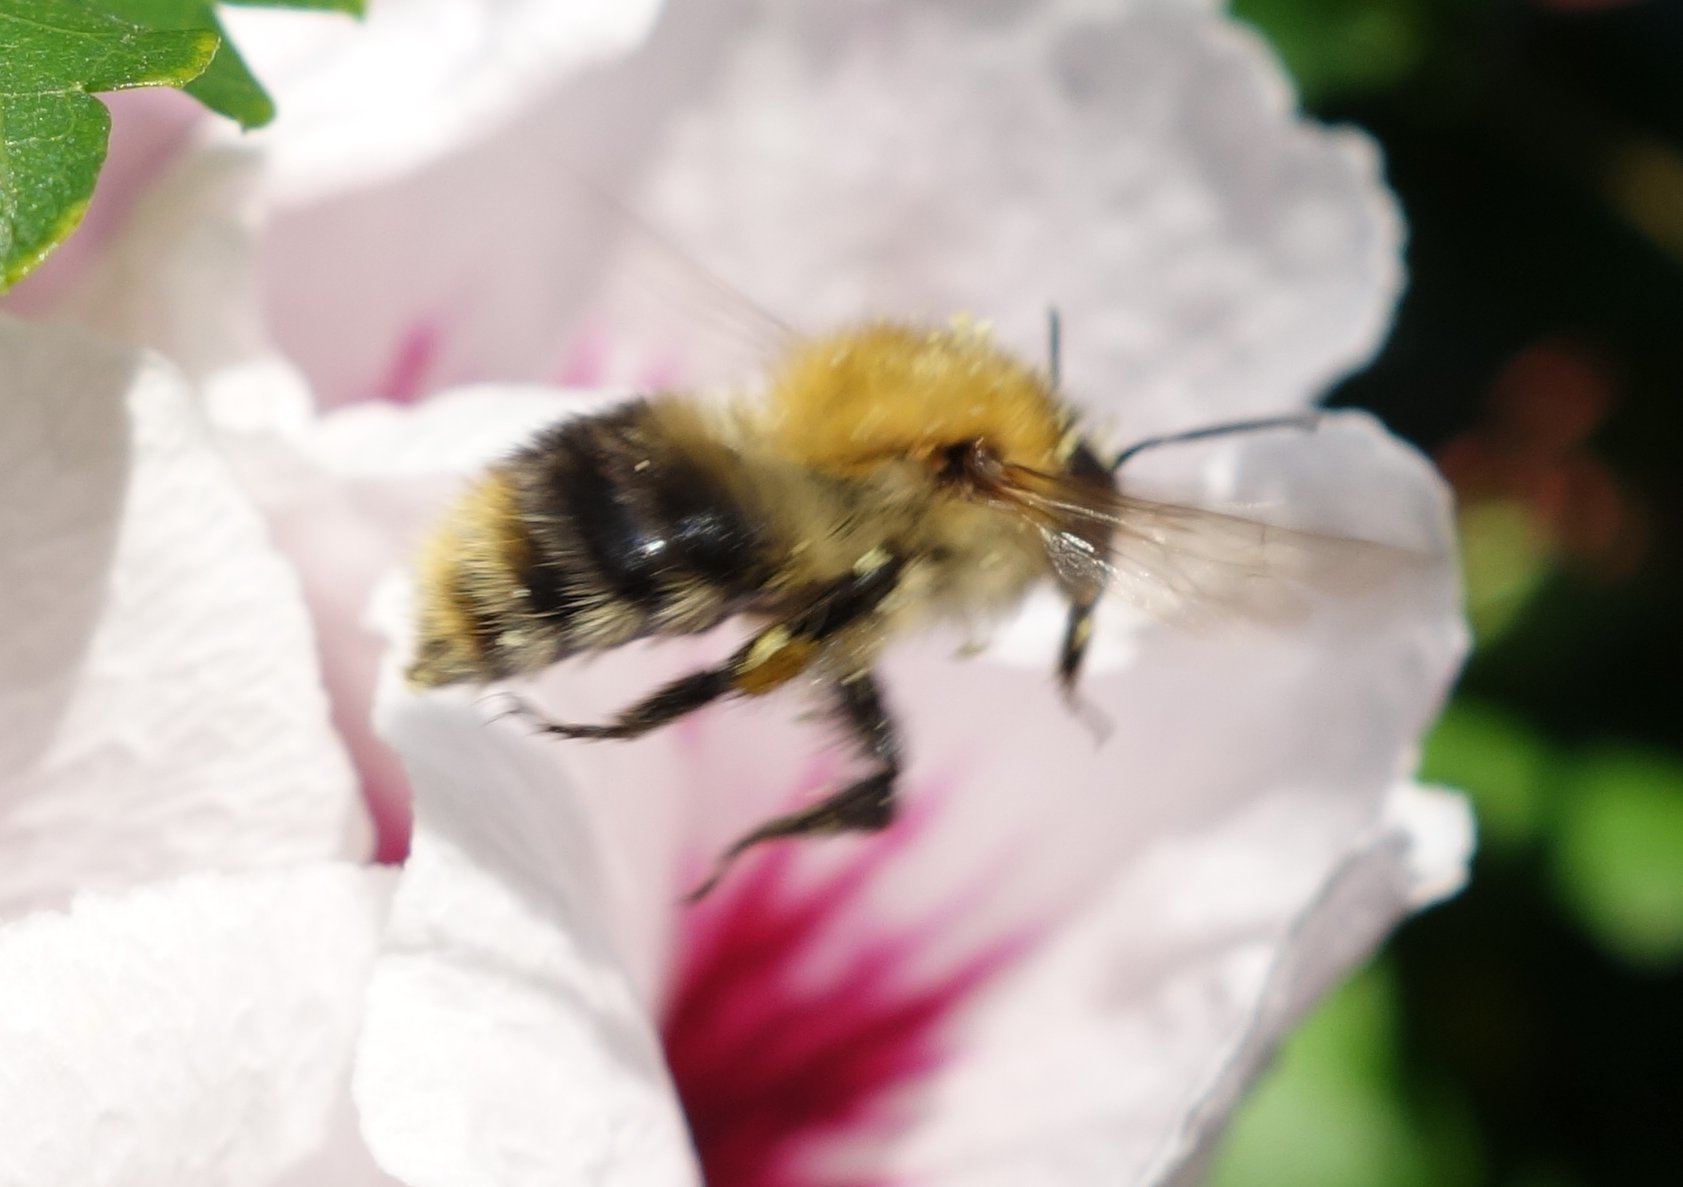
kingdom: Animalia
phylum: Arthropoda
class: Insecta
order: Hymenoptera
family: Apidae
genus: Bombus
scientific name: Bombus pascuorum
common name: Common carder bee
